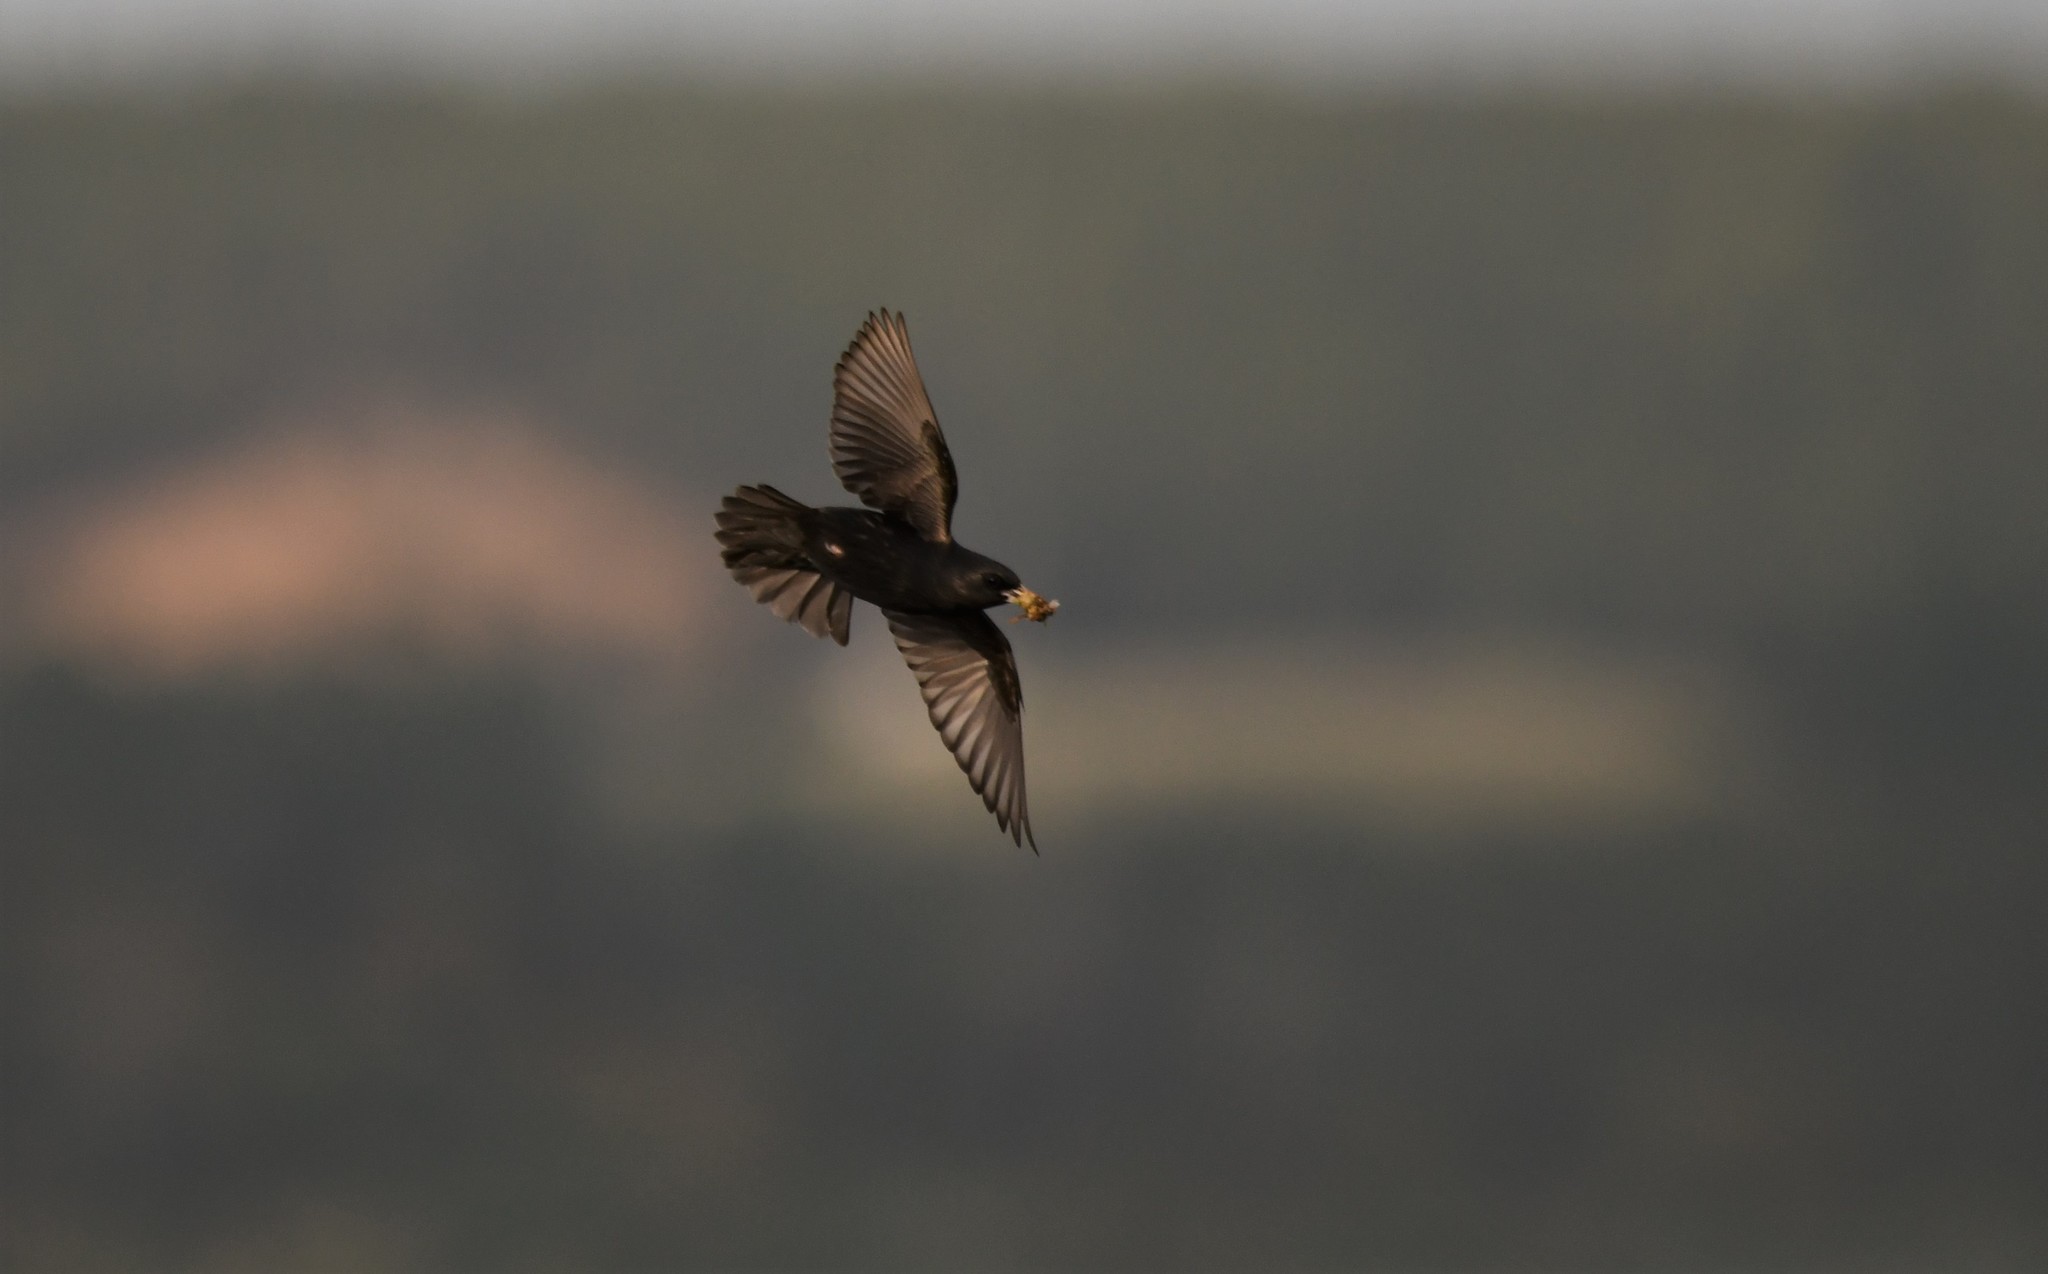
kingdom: Animalia
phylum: Chordata
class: Aves
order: Passeriformes
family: Sturnidae
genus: Sturnus
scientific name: Sturnus unicolor
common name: Spotless starling
